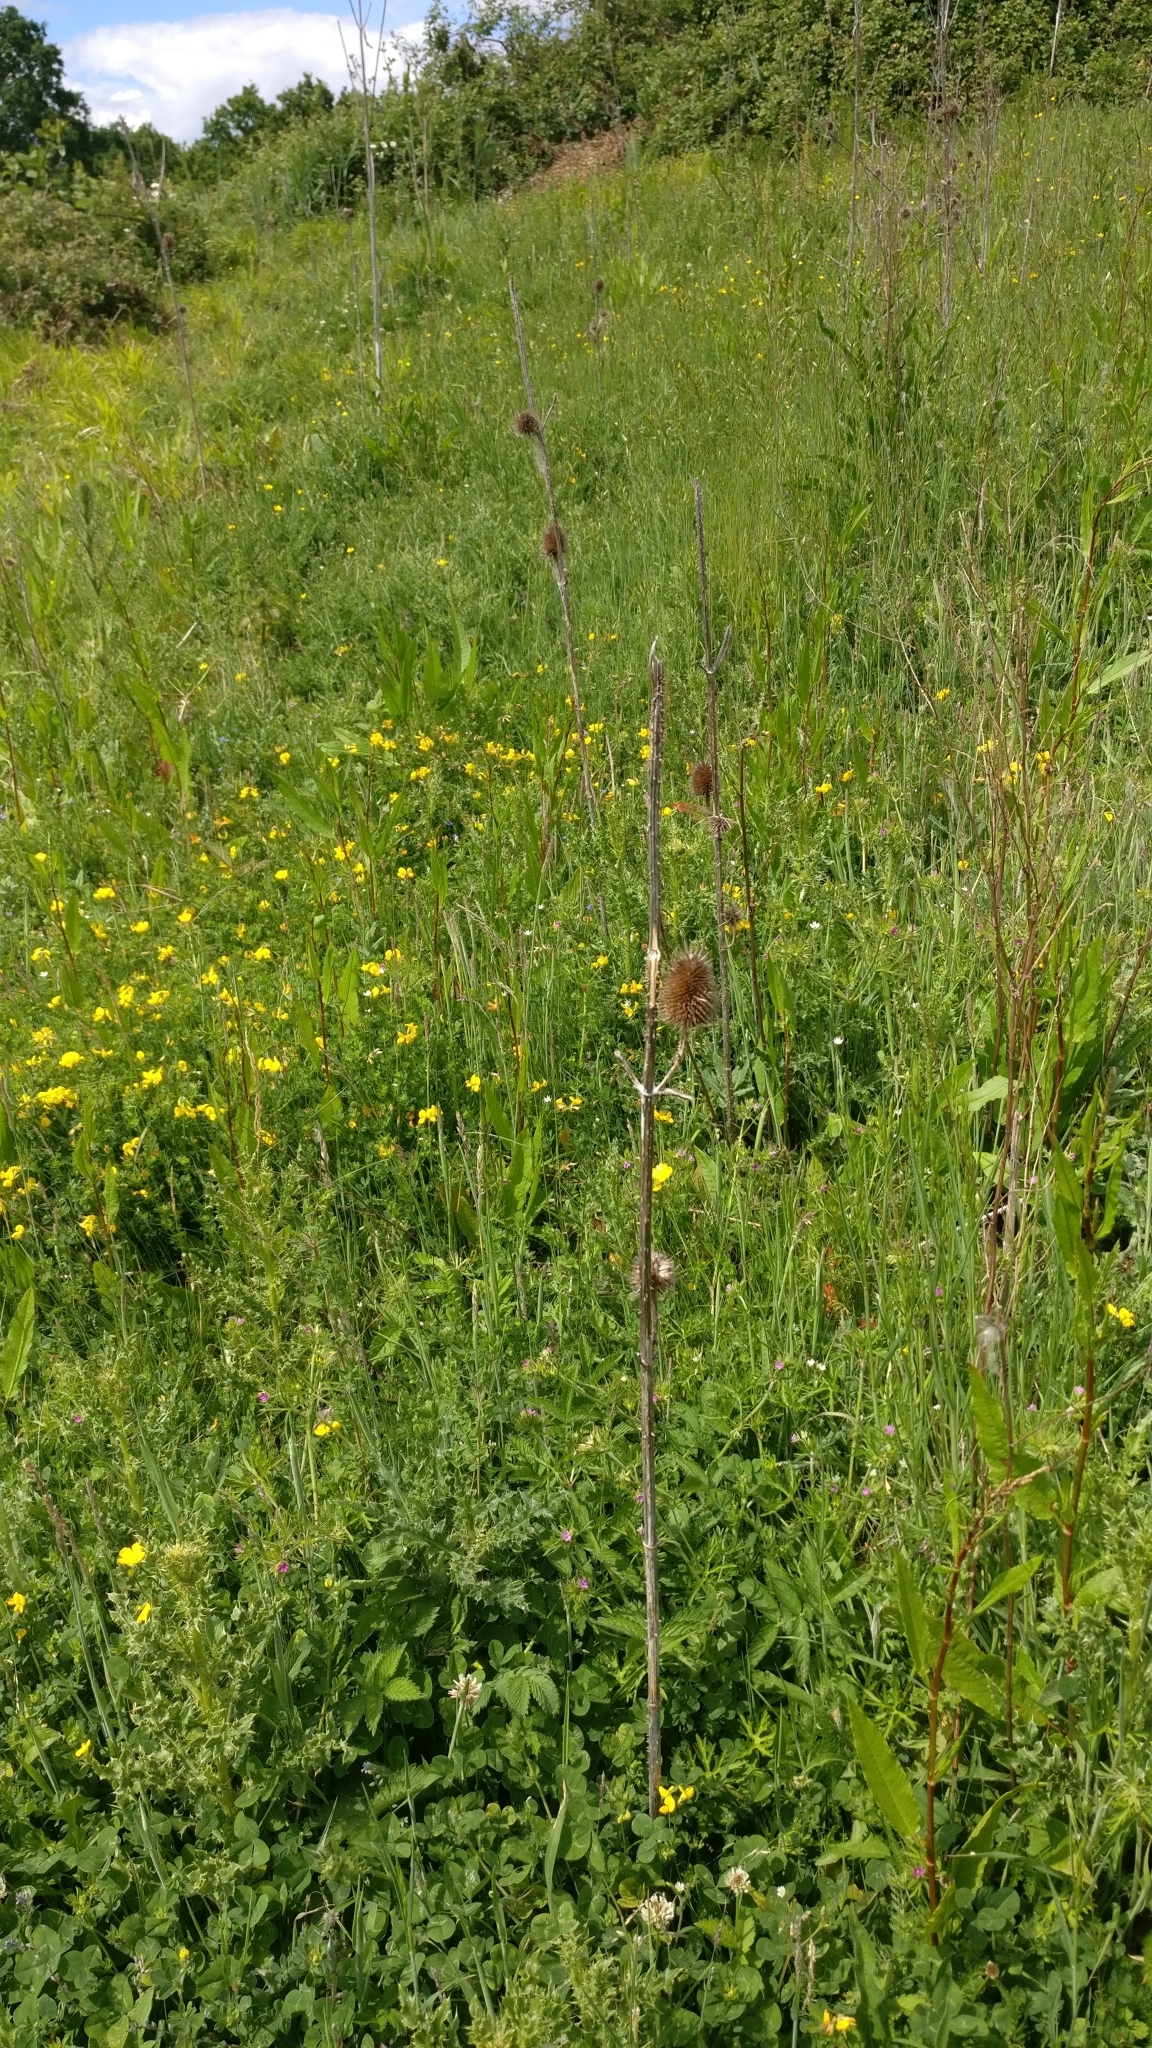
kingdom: Plantae
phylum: Tracheophyta
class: Magnoliopsida
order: Dipsacales
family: Caprifoliaceae
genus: Dipsacus
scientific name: Dipsacus fullonum
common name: Teasel
